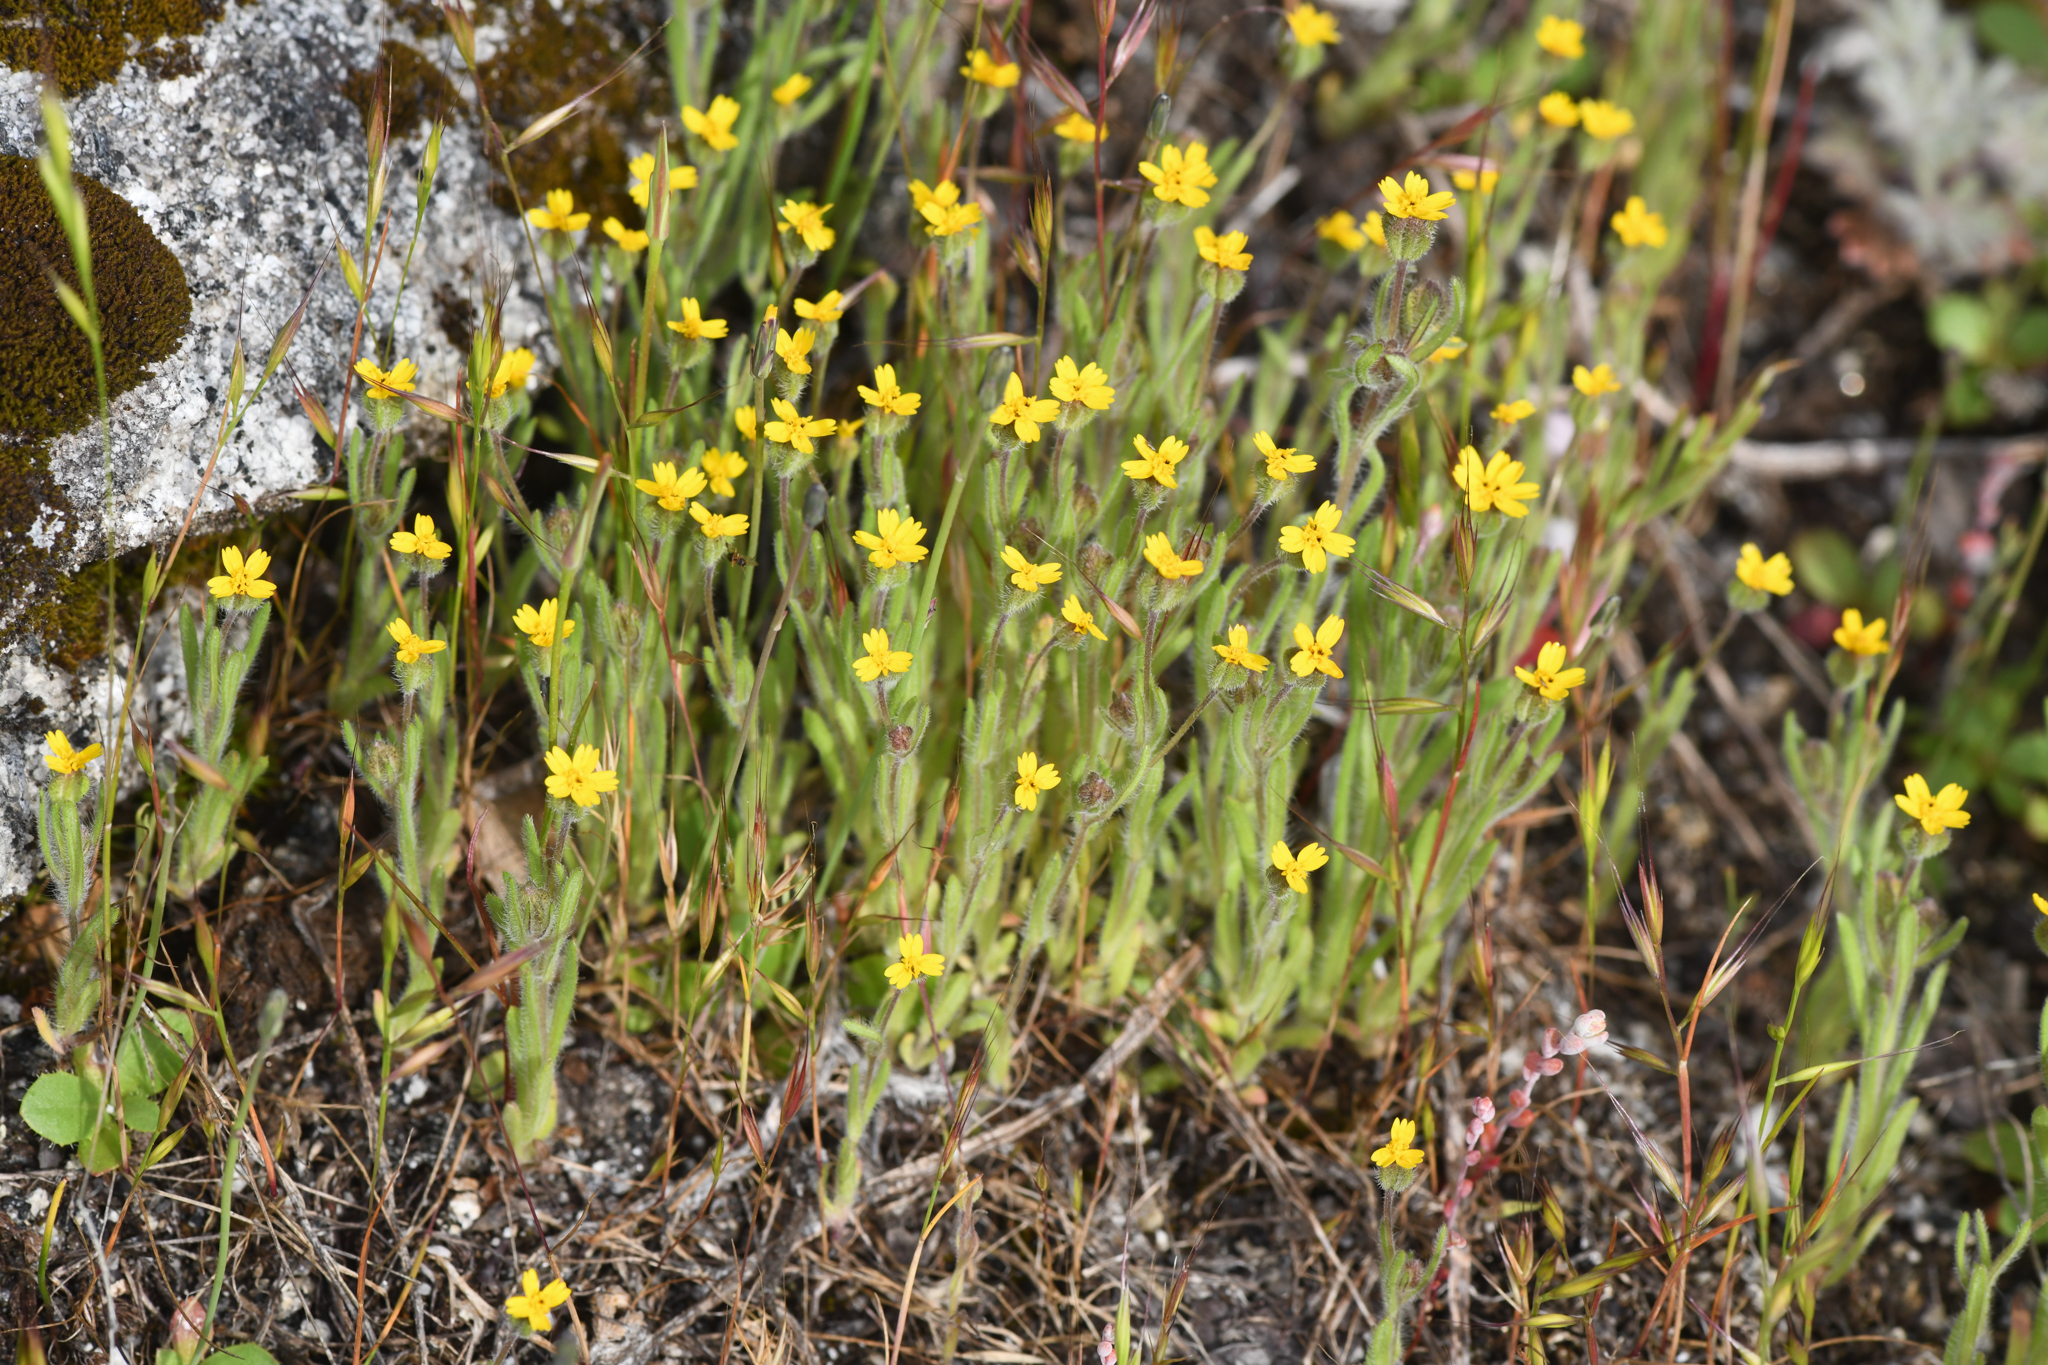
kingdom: Plantae
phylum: Tracheophyta
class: Magnoliopsida
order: Asterales
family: Asteraceae
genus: Jensia
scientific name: Jensia yosemitana
